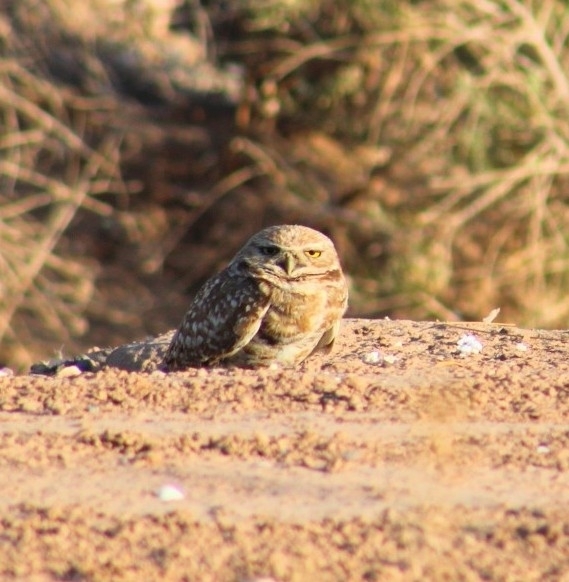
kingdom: Animalia
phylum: Chordata
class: Aves
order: Strigiformes
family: Strigidae
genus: Athene
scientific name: Athene cunicularia
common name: Burrowing owl
